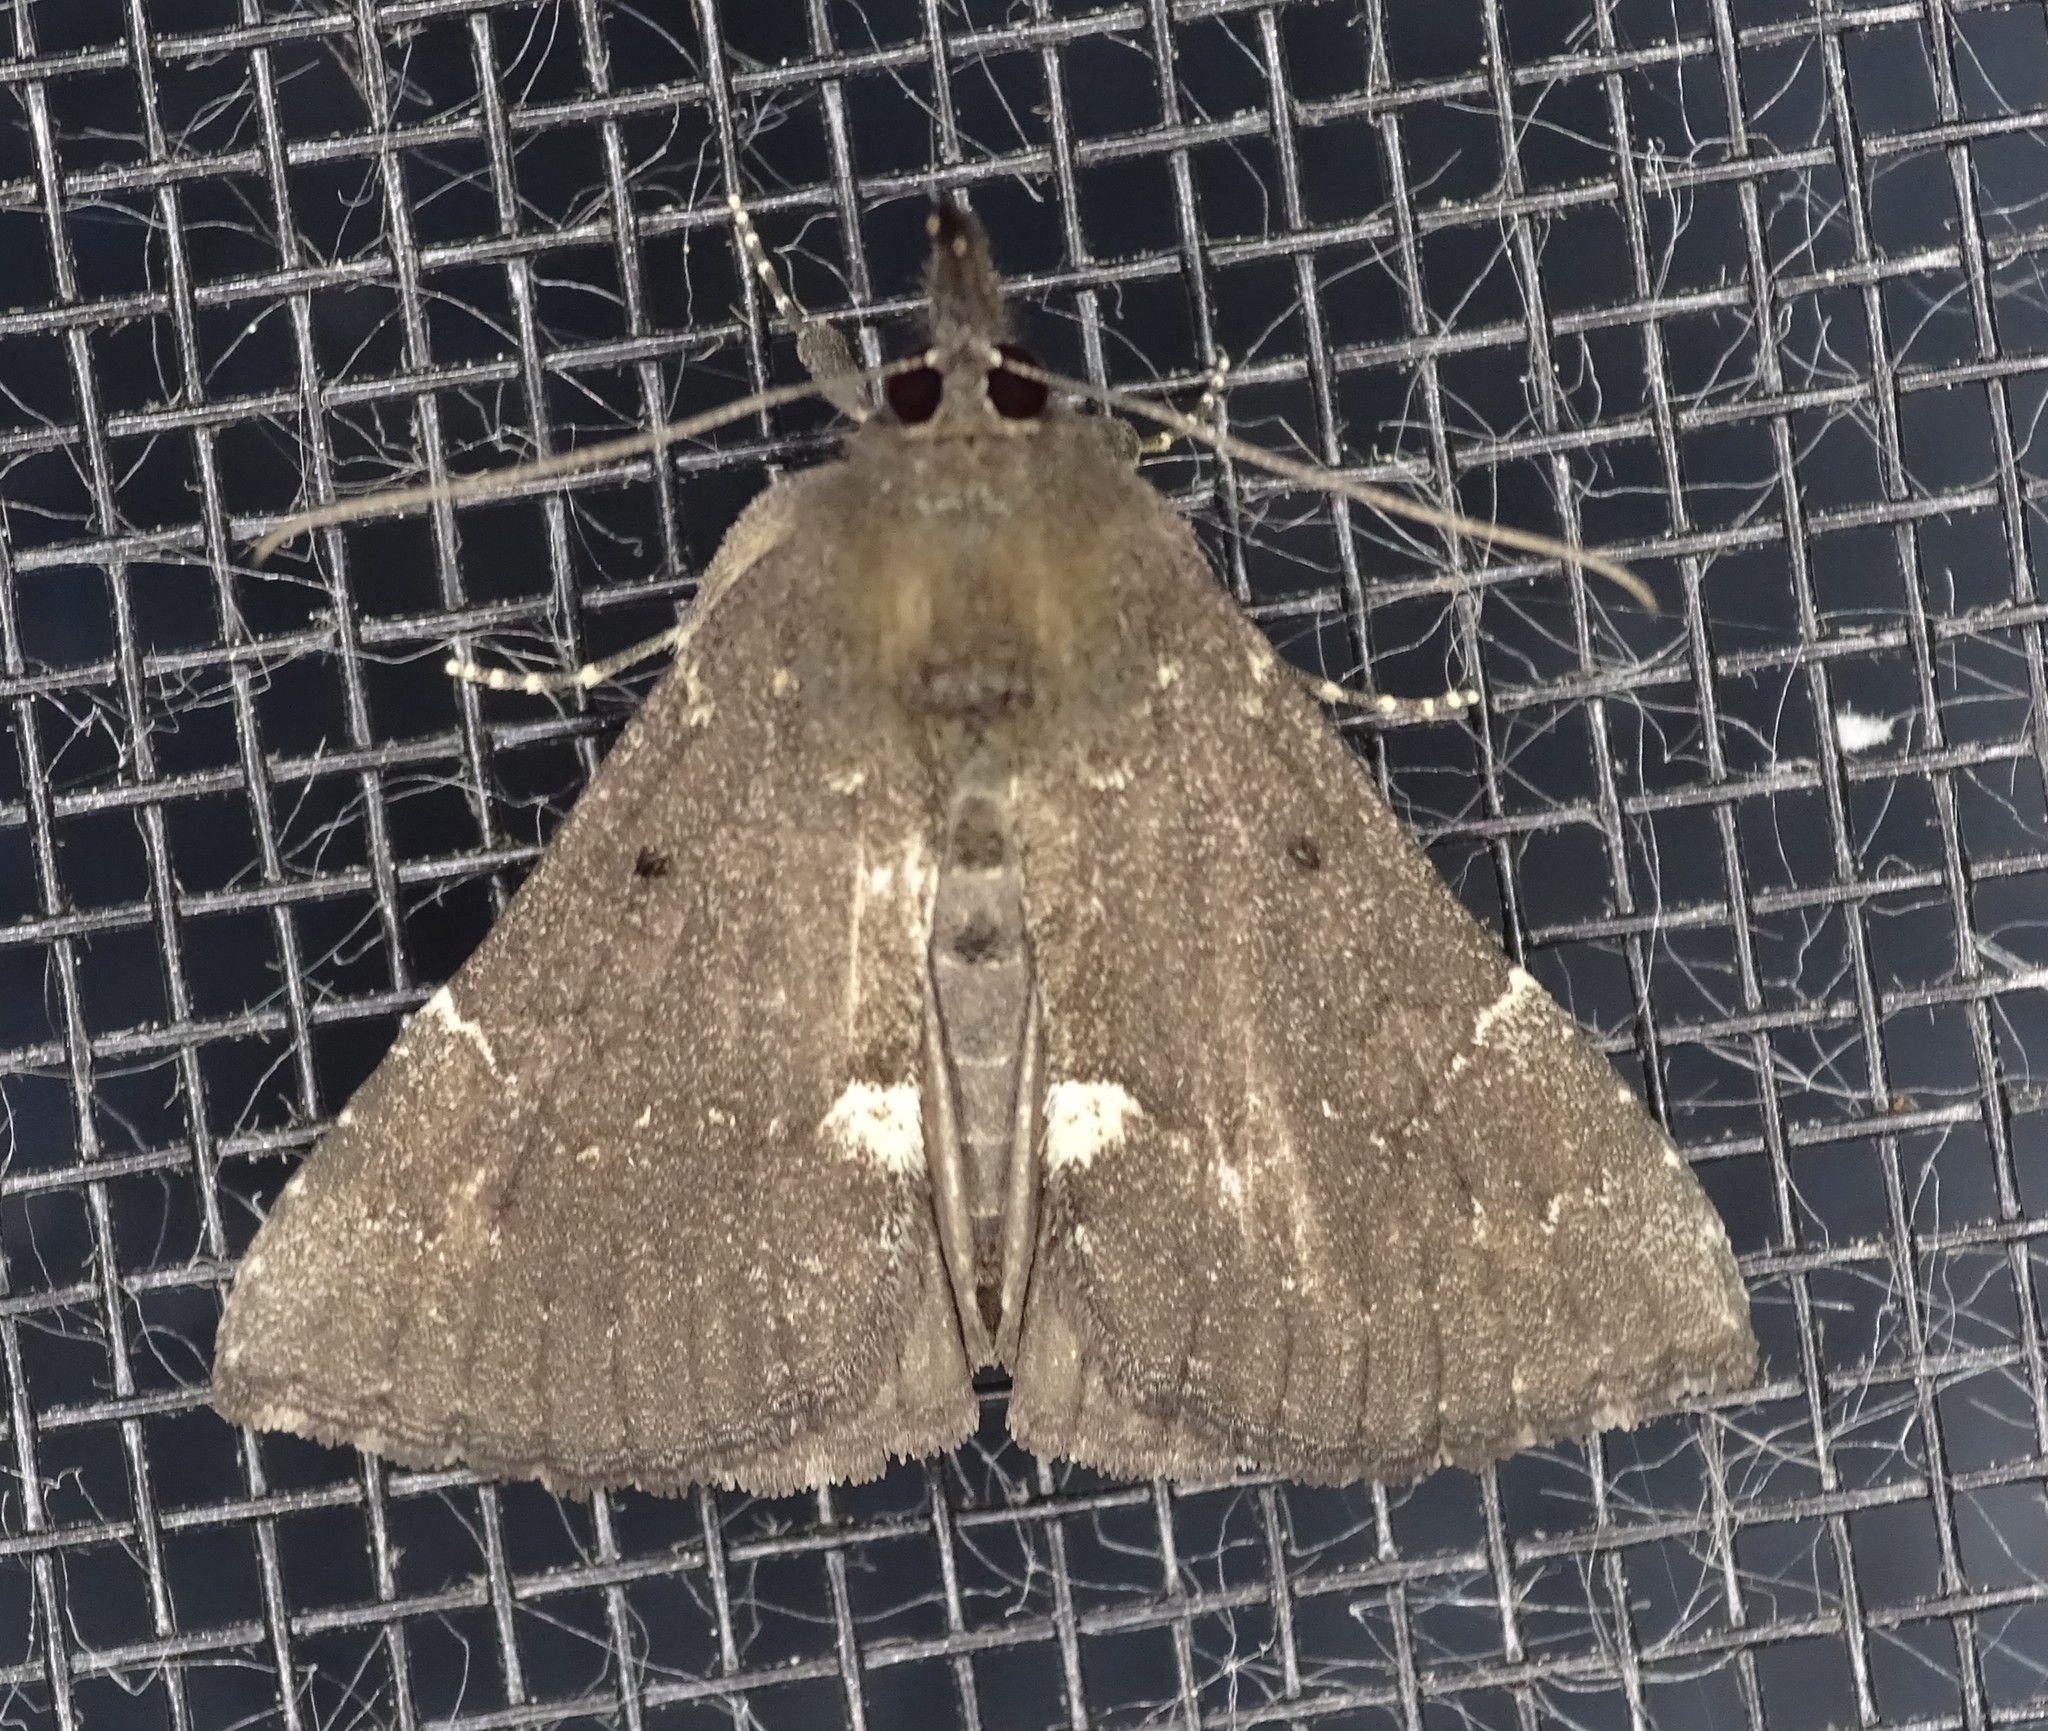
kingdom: Animalia
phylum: Arthropoda
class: Insecta
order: Lepidoptera
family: Erebidae
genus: Hypena
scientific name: Hypena bijugalis
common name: Dimorphic bomolocha moth
